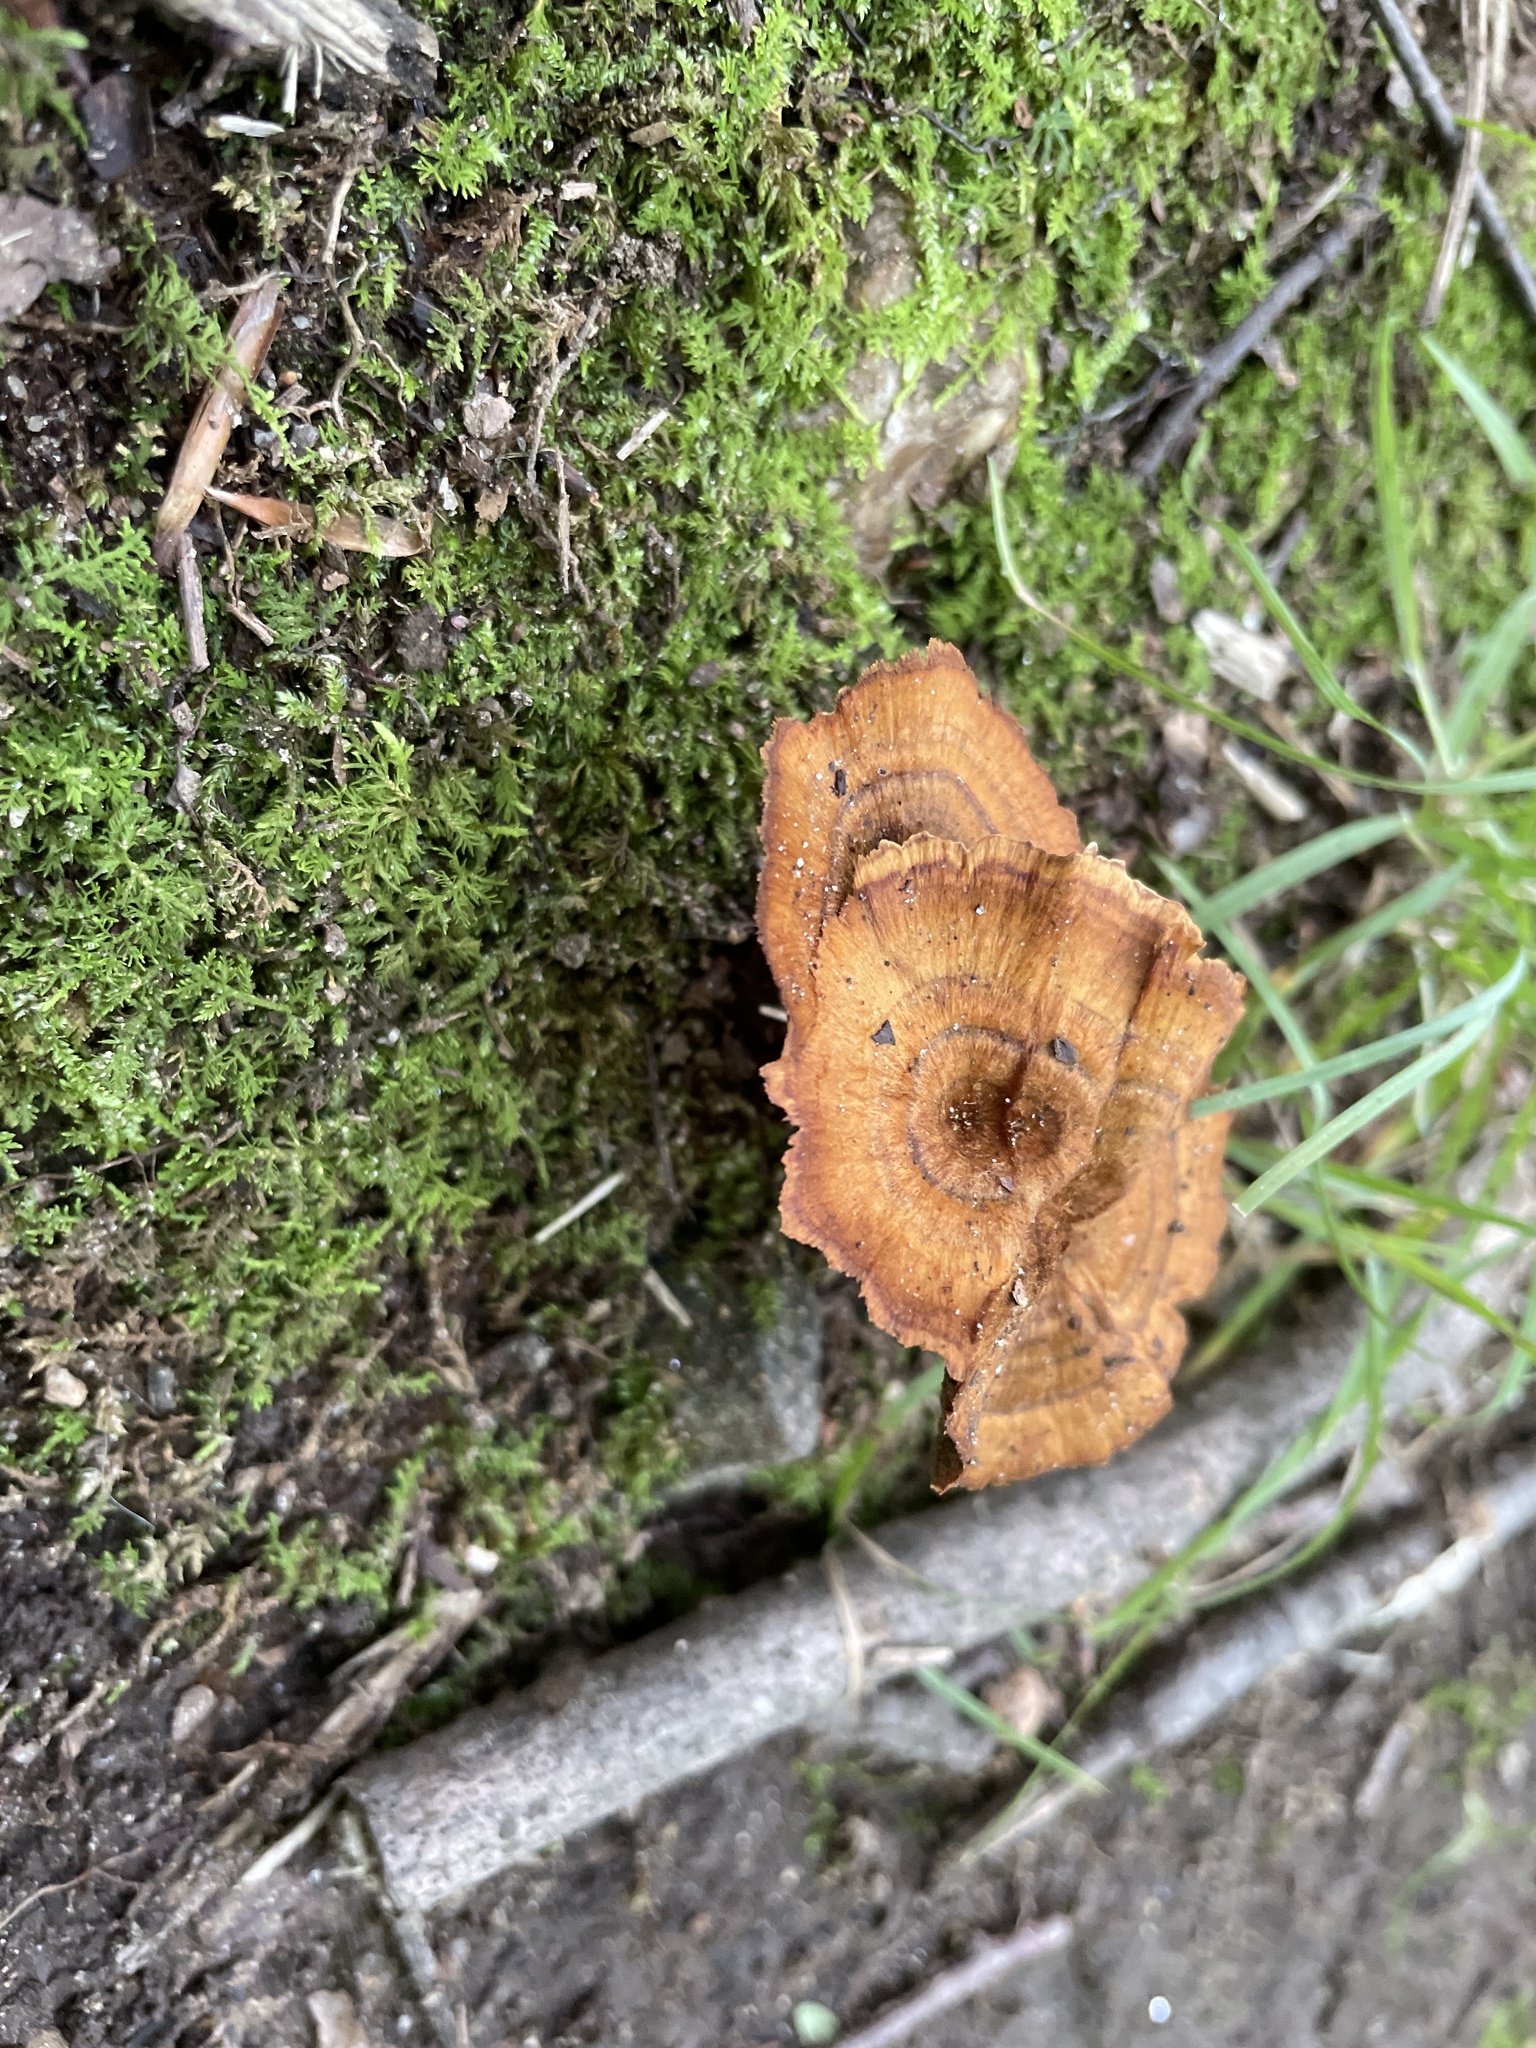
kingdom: Fungi
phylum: Basidiomycota
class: Agaricomycetes
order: Hymenochaetales
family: Hymenochaetaceae
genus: Coltricia
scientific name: Coltricia cinnamomea
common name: Shiny cinnamon polypore
